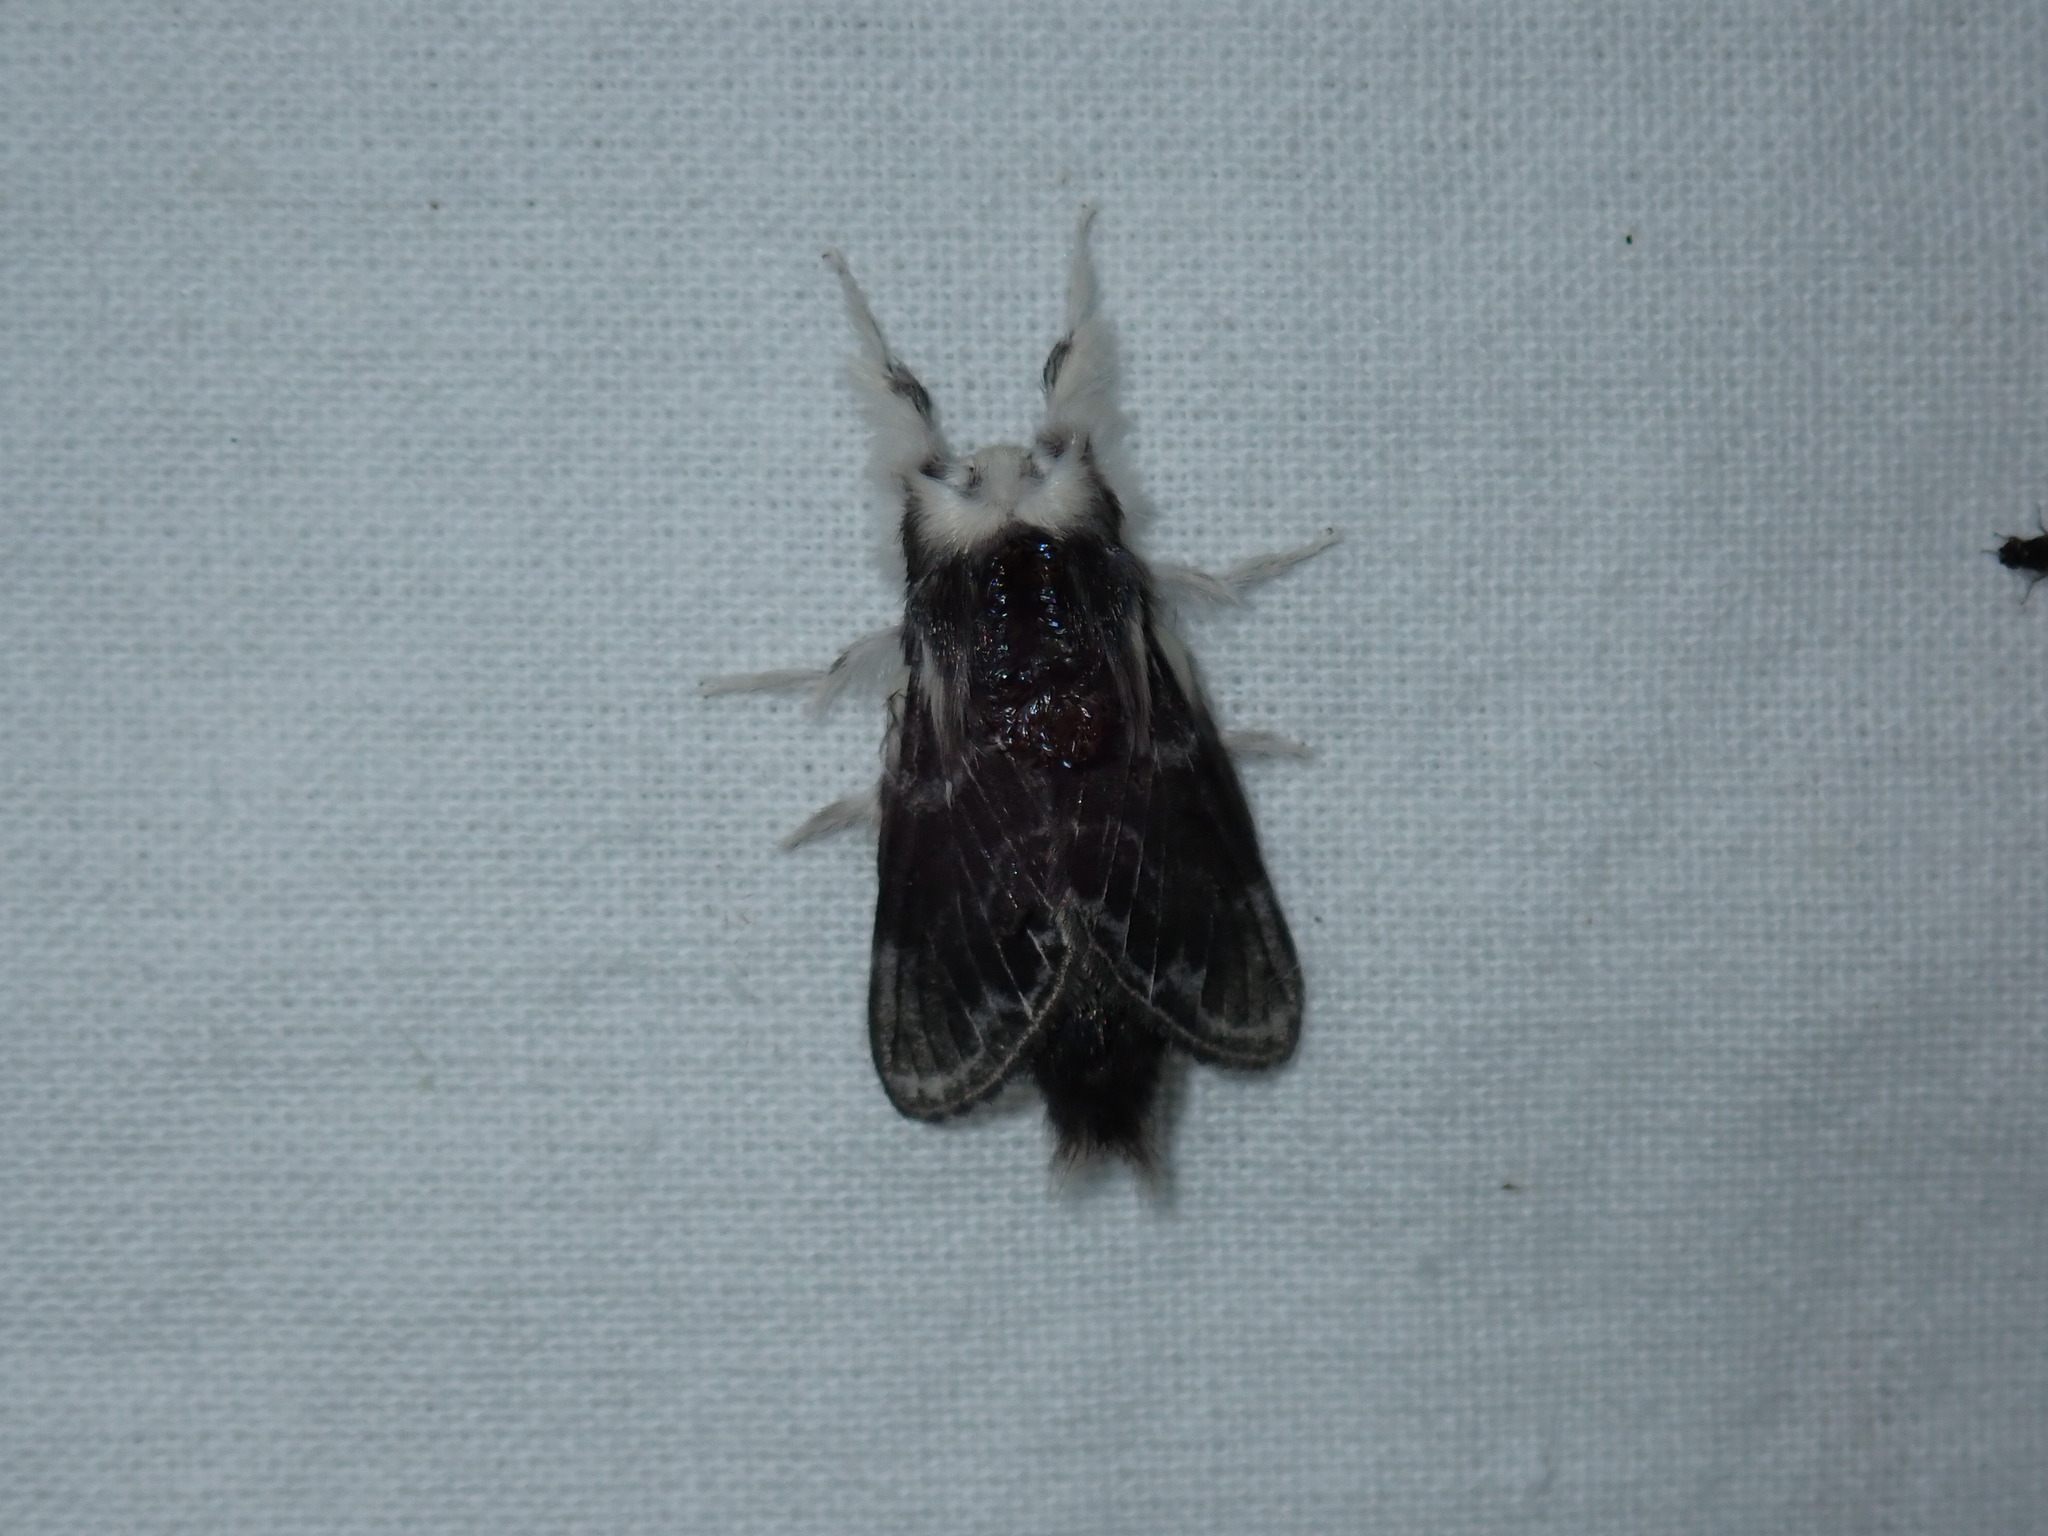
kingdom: Animalia
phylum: Arthropoda
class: Insecta
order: Lepidoptera
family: Lasiocampidae
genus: Tolype
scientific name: Tolype laricis
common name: Larch tolype moth
